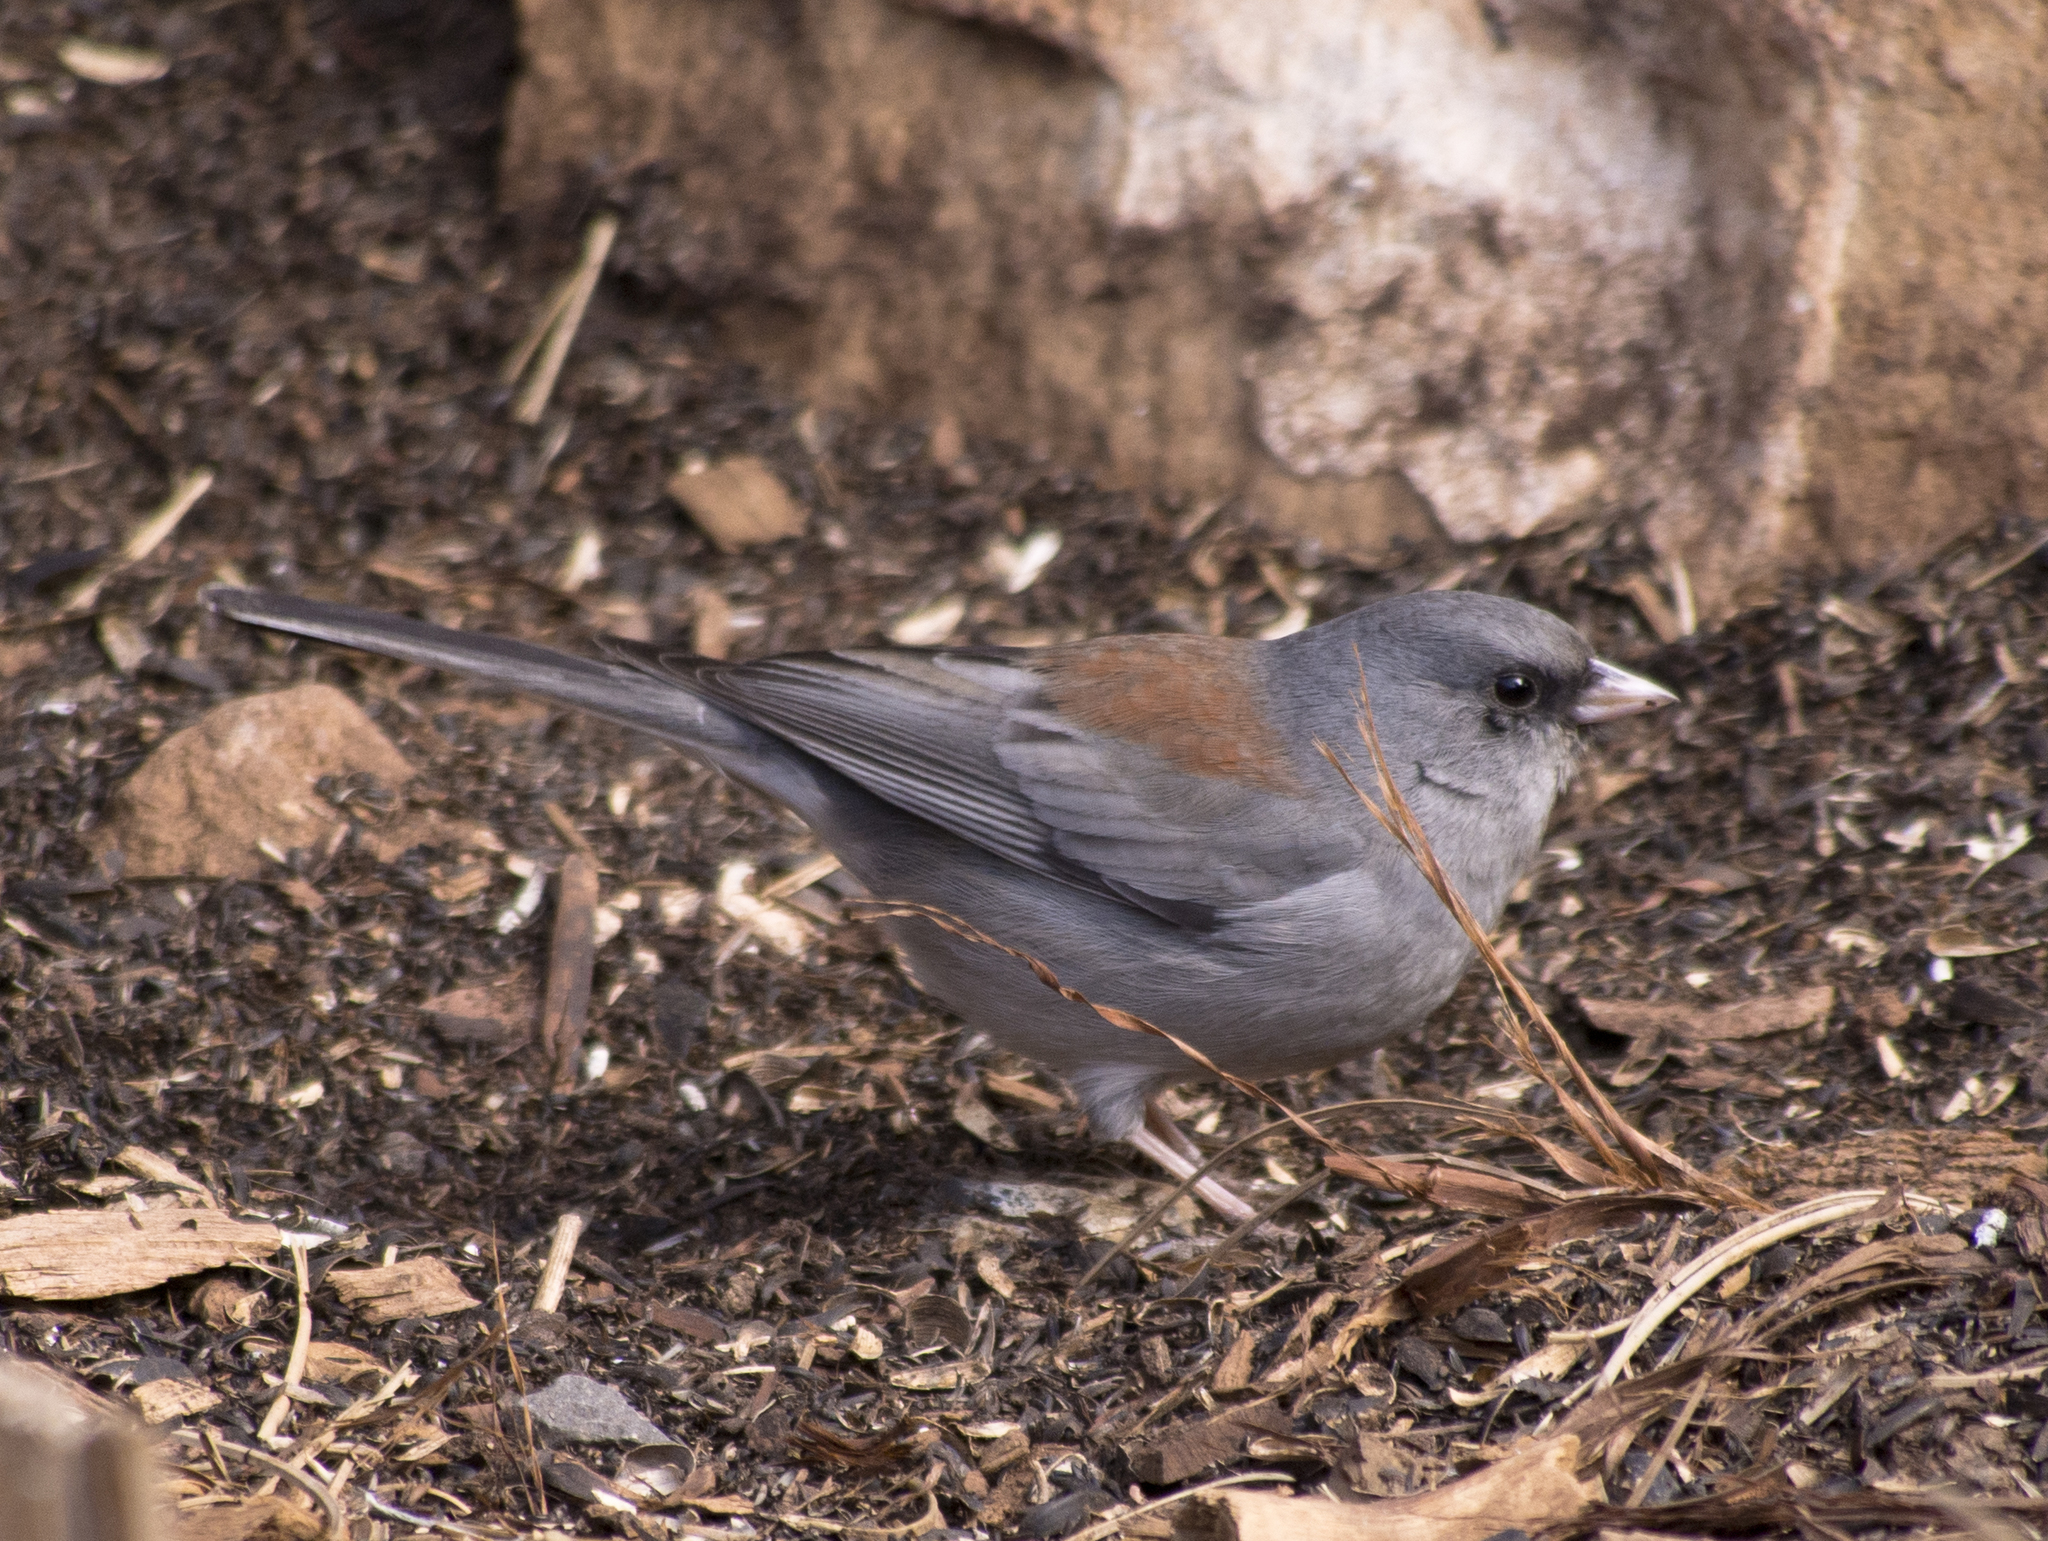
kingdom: Animalia
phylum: Chordata
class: Aves
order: Passeriformes
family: Passerellidae
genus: Junco
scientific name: Junco hyemalis
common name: Dark-eyed junco
